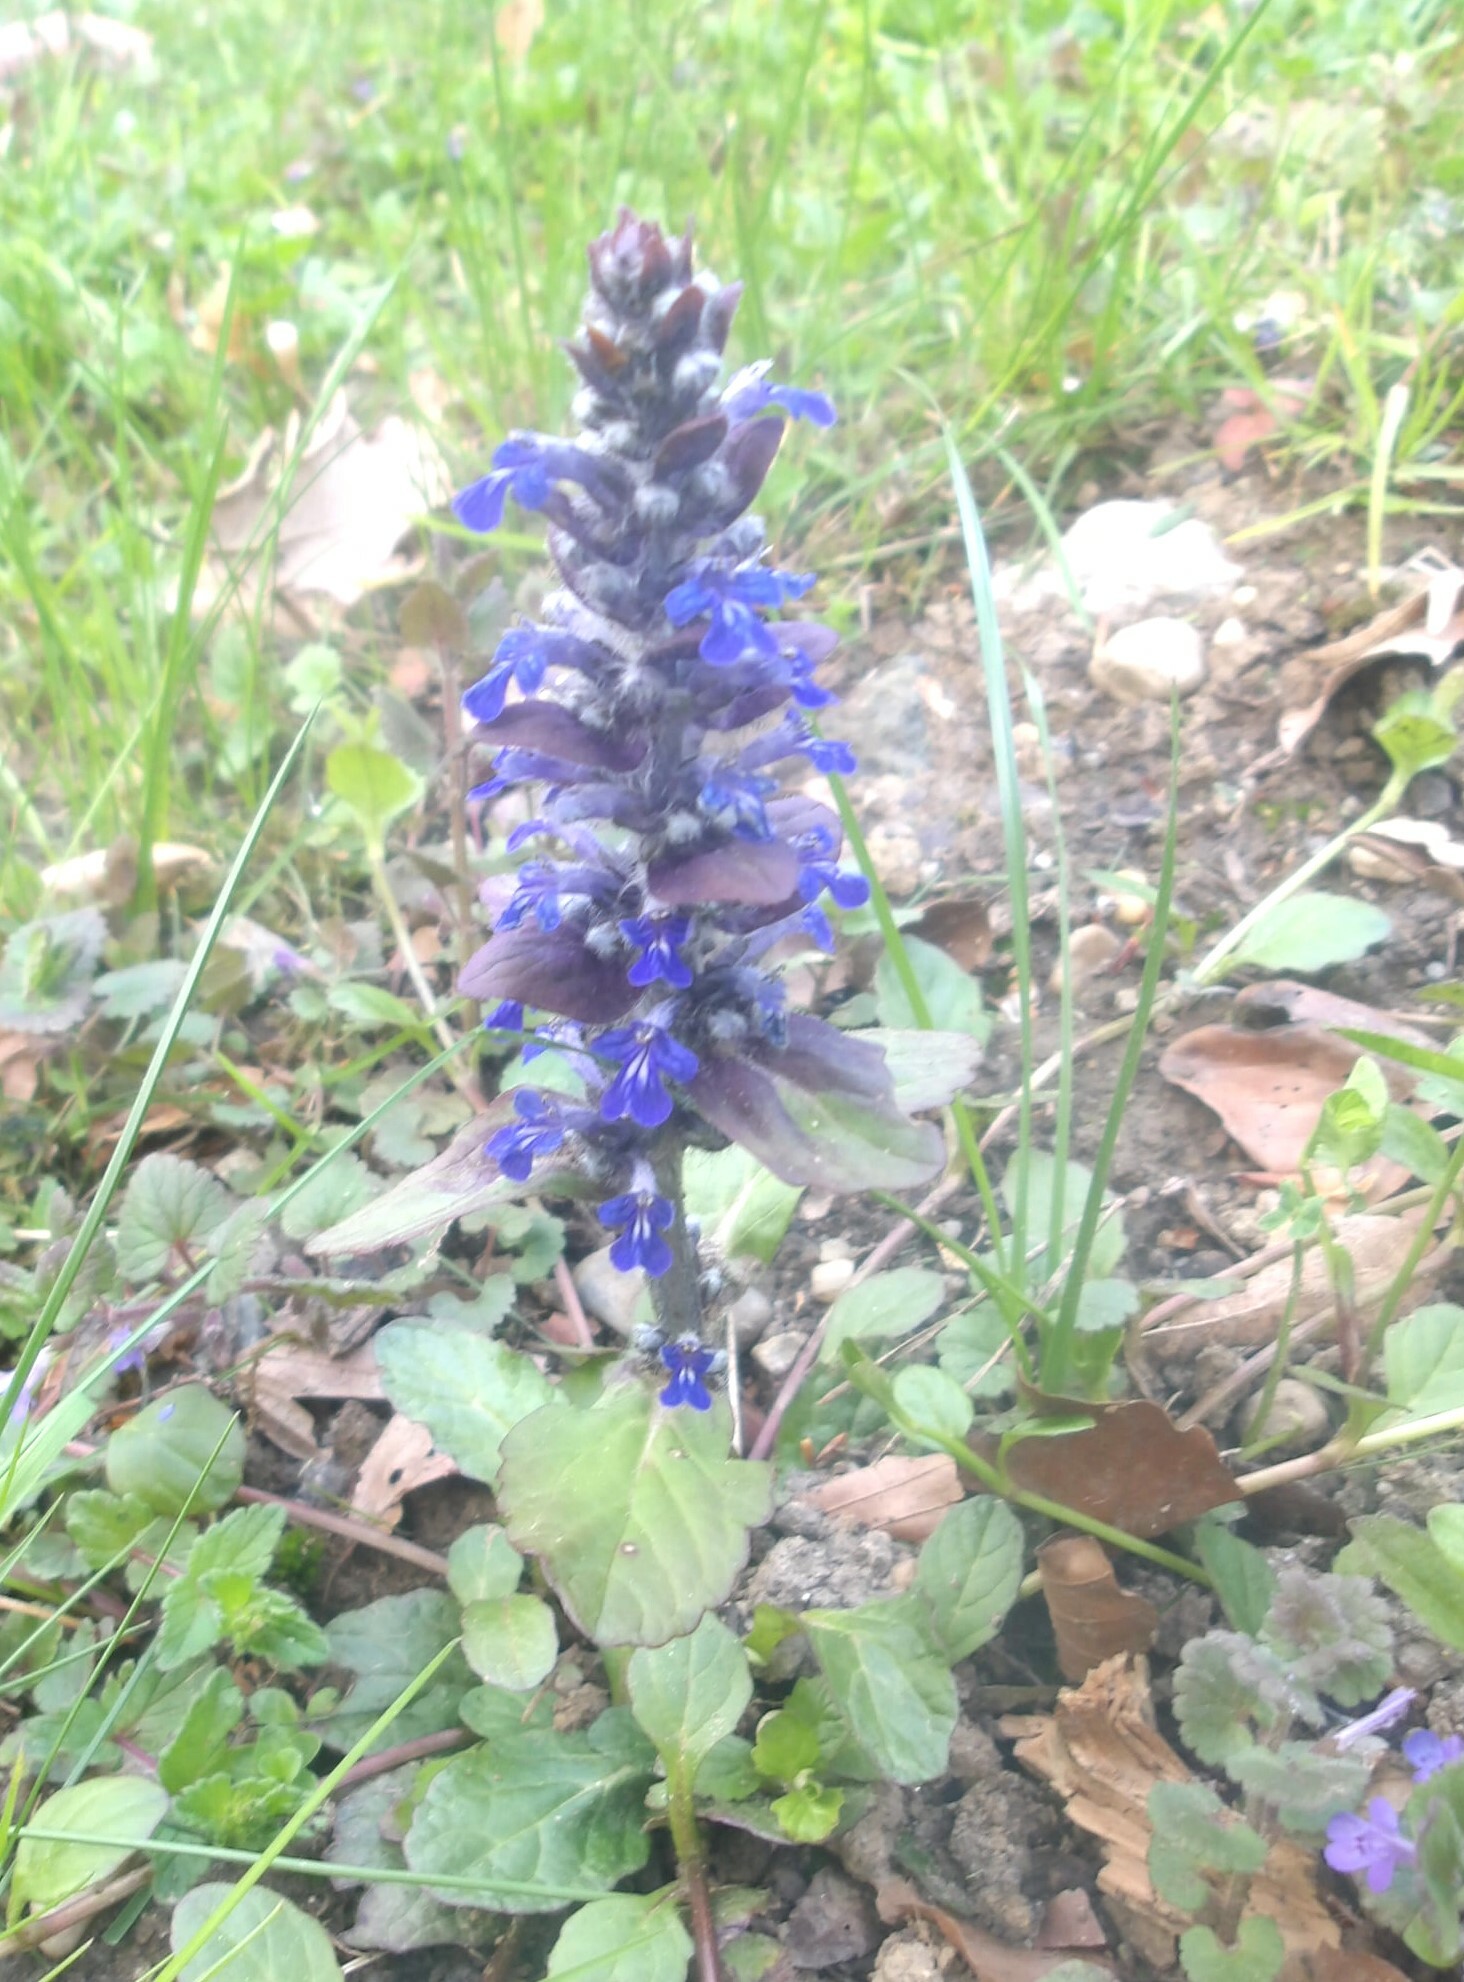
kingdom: Plantae
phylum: Tracheophyta
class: Magnoliopsida
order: Lamiales
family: Lamiaceae
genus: Ajuga
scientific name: Ajuga reptans
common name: Bugle
